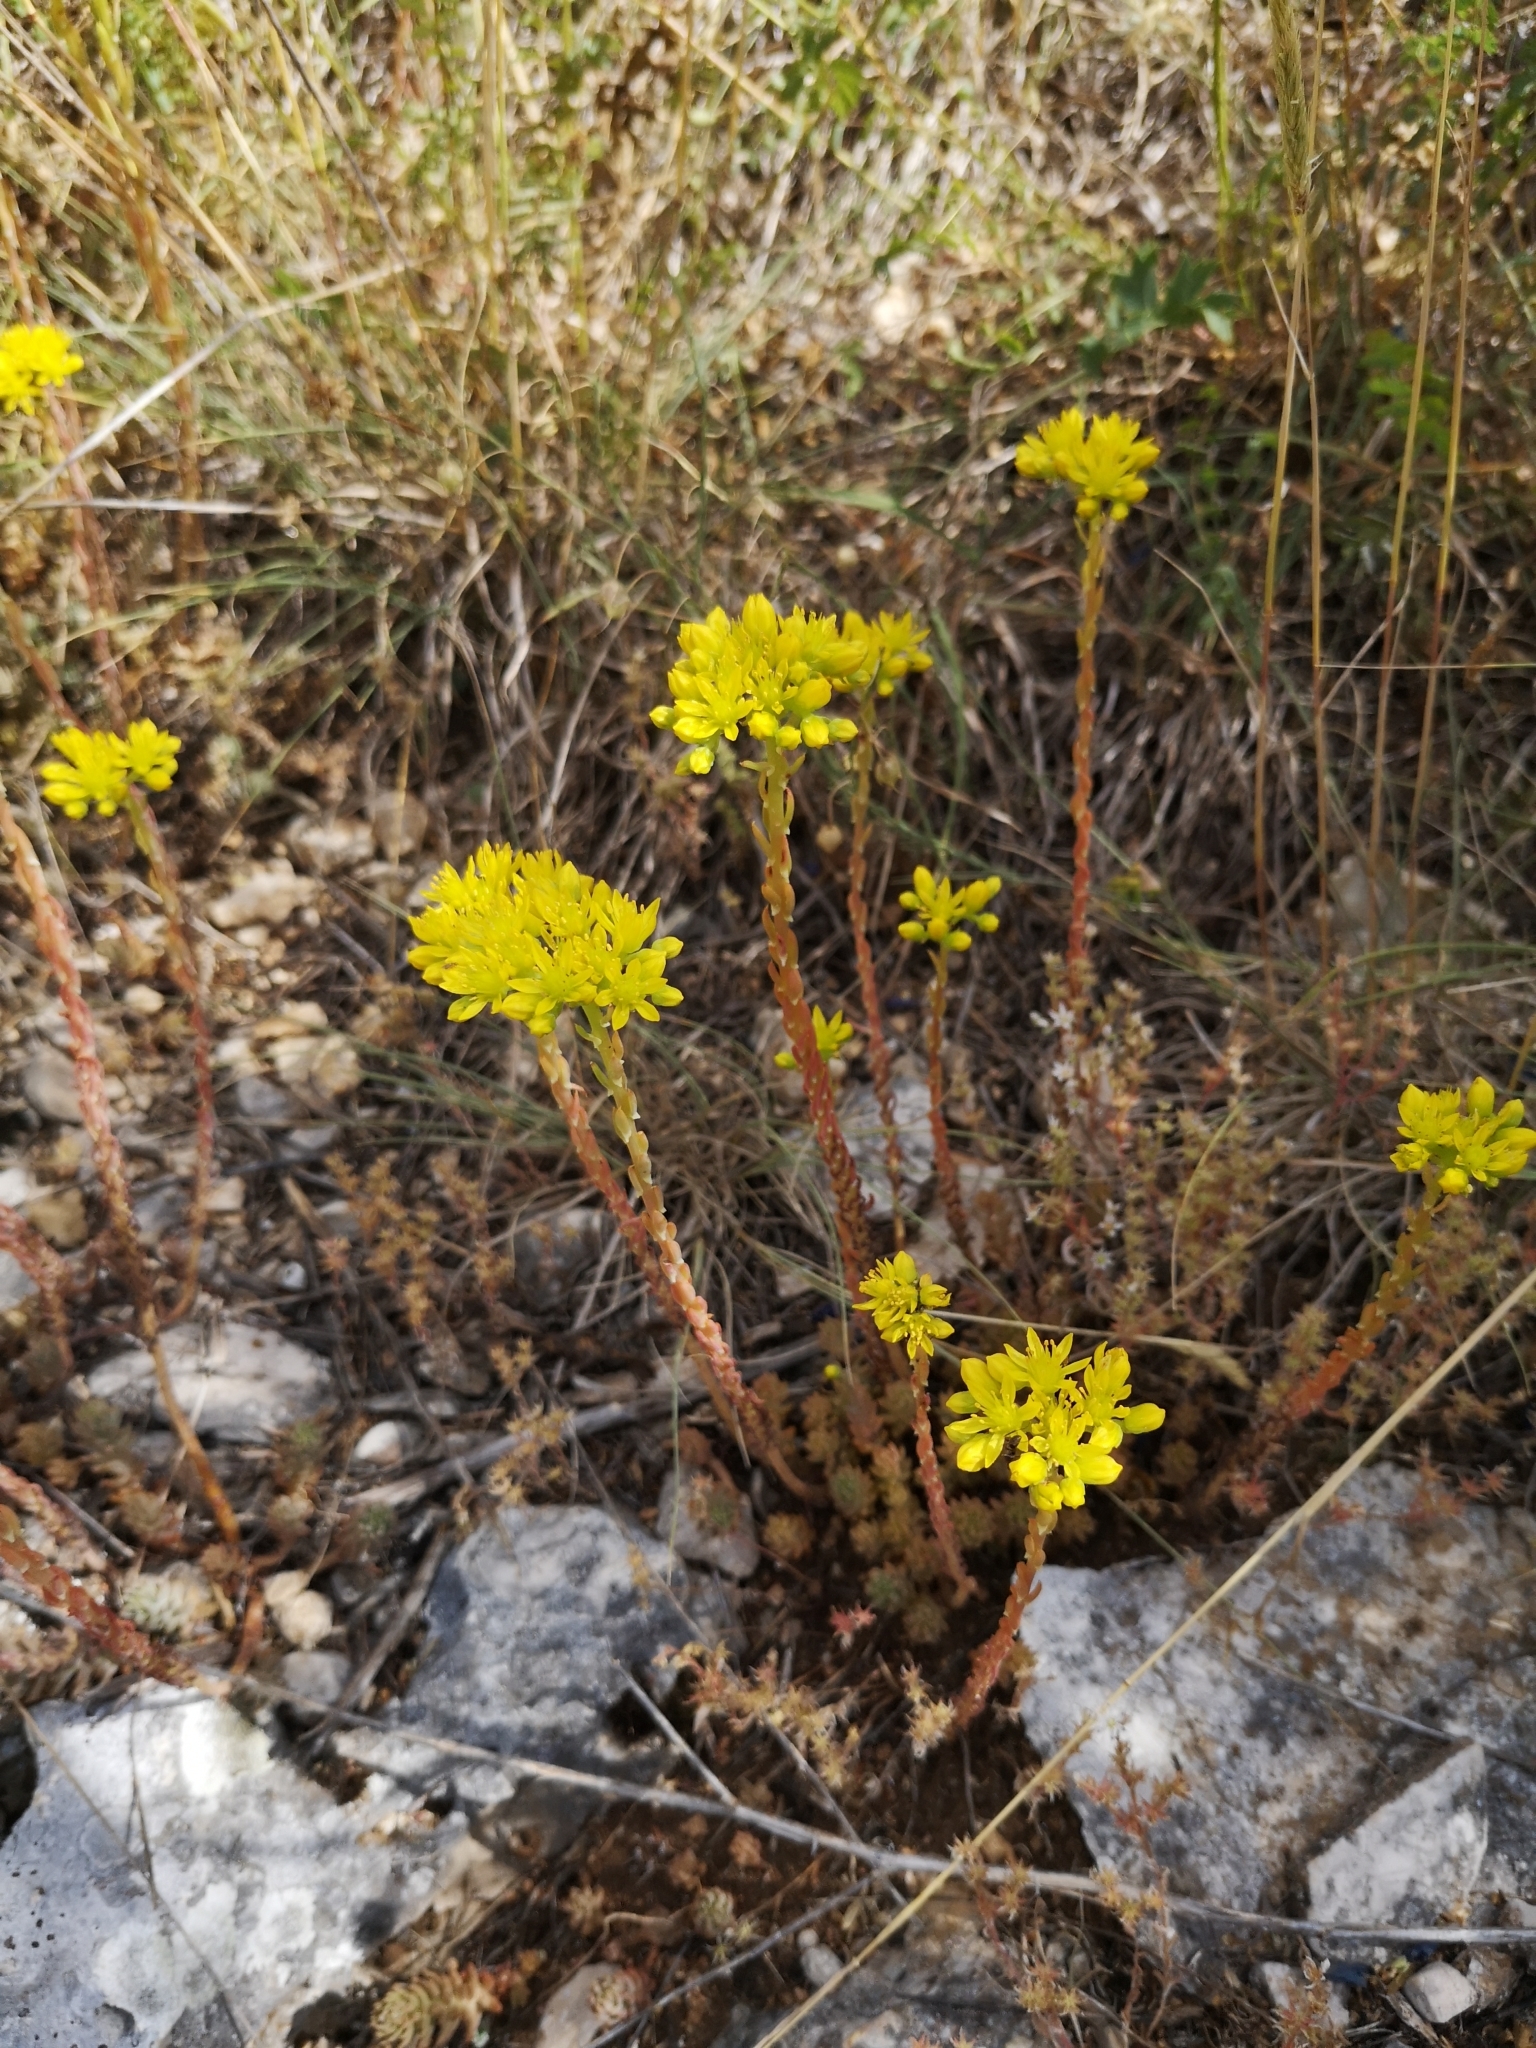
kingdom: Plantae
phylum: Tracheophyta
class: Magnoliopsida
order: Saxifragales
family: Crassulaceae
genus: Petrosedum
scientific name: Petrosedum rupestre
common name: Jenny's stonecrop
